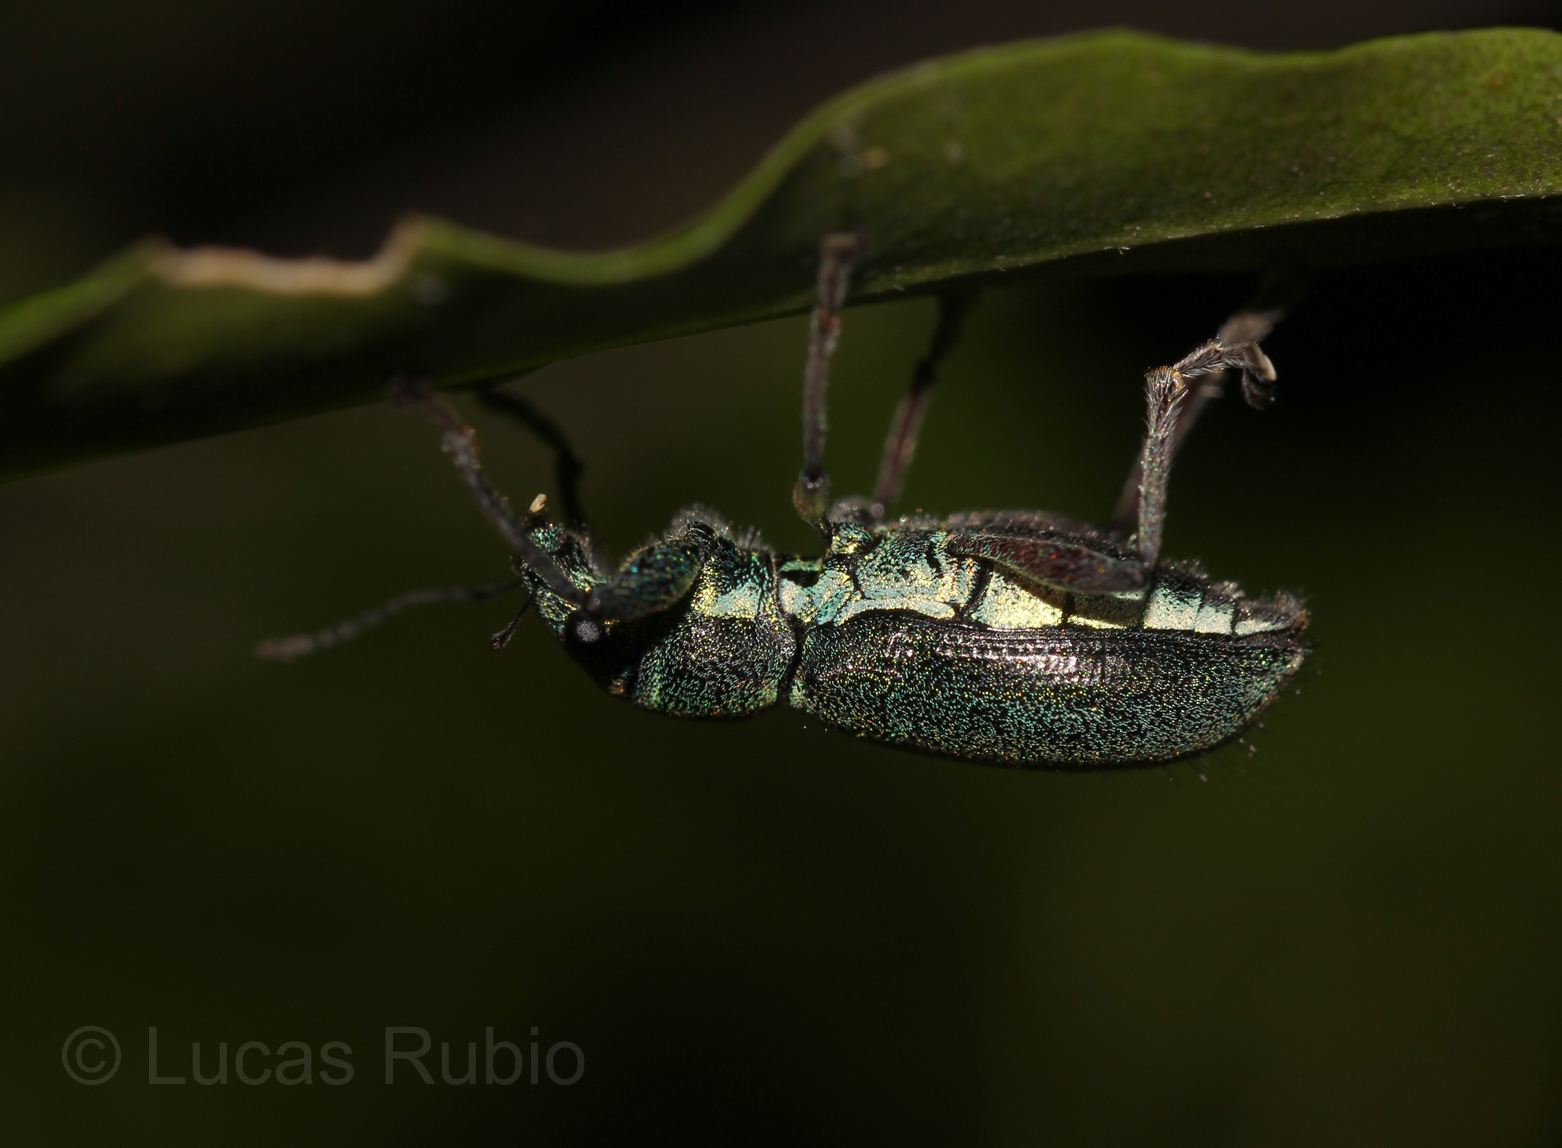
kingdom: Animalia
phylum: Arthropoda
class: Insecta
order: Coleoptera
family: Curculionidae
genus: Naupactus
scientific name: Naupactus auricinctus
